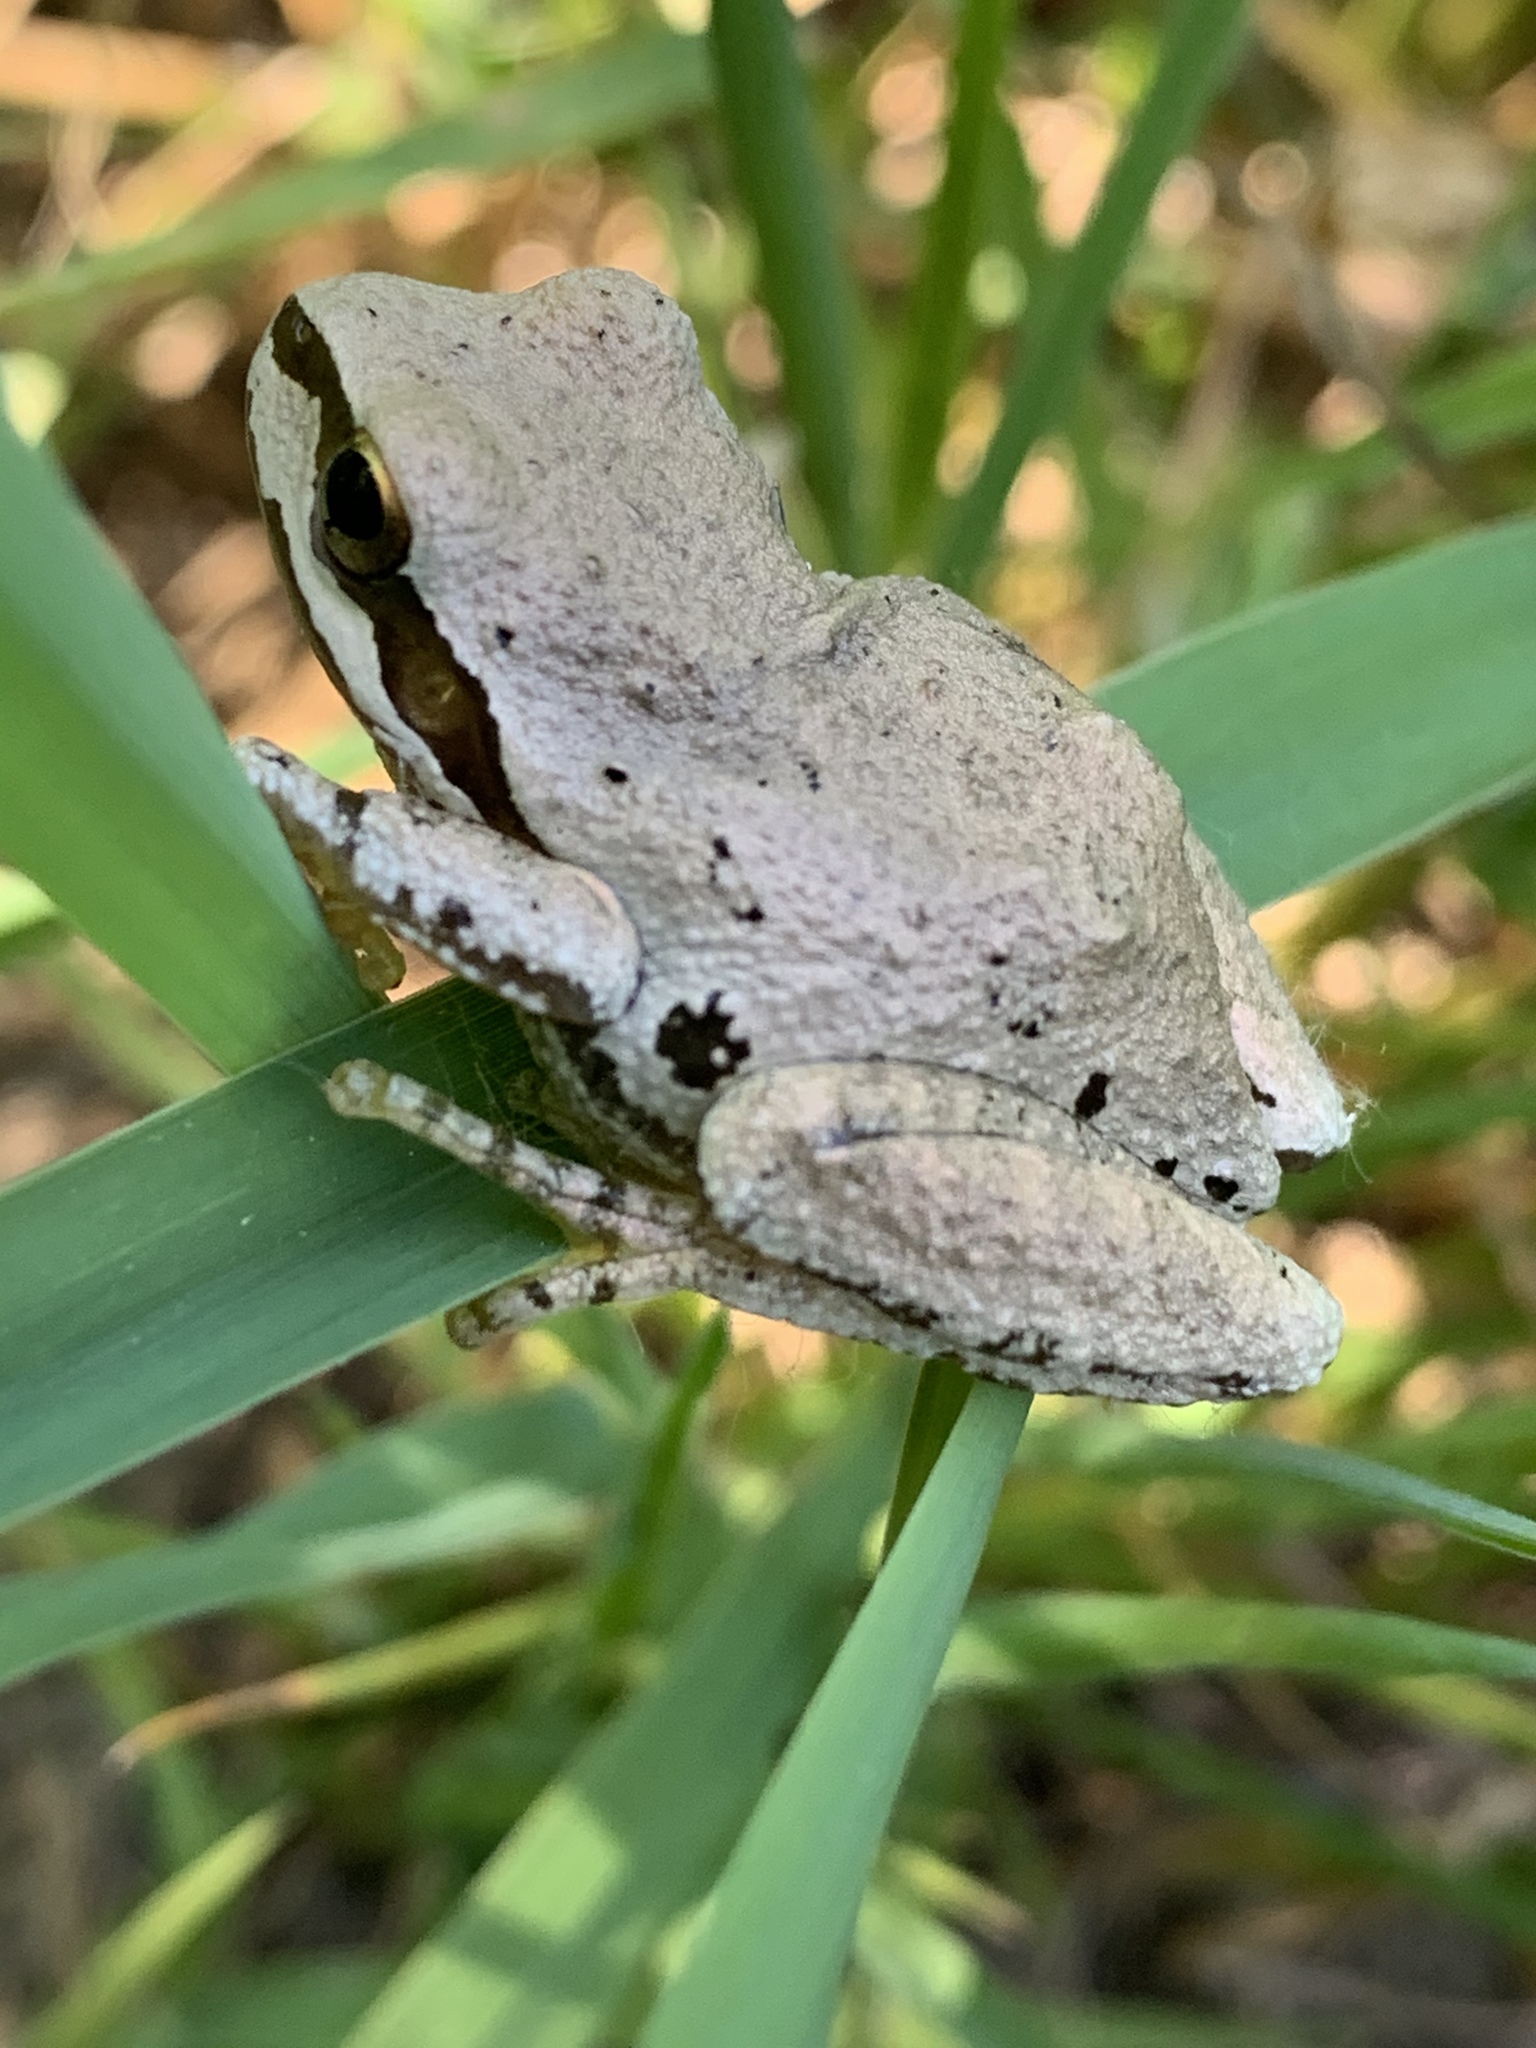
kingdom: Animalia
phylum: Chordata
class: Amphibia
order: Anura
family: Hylidae
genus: Pseudacris
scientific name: Pseudacris regilla
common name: Pacific chorus frog
